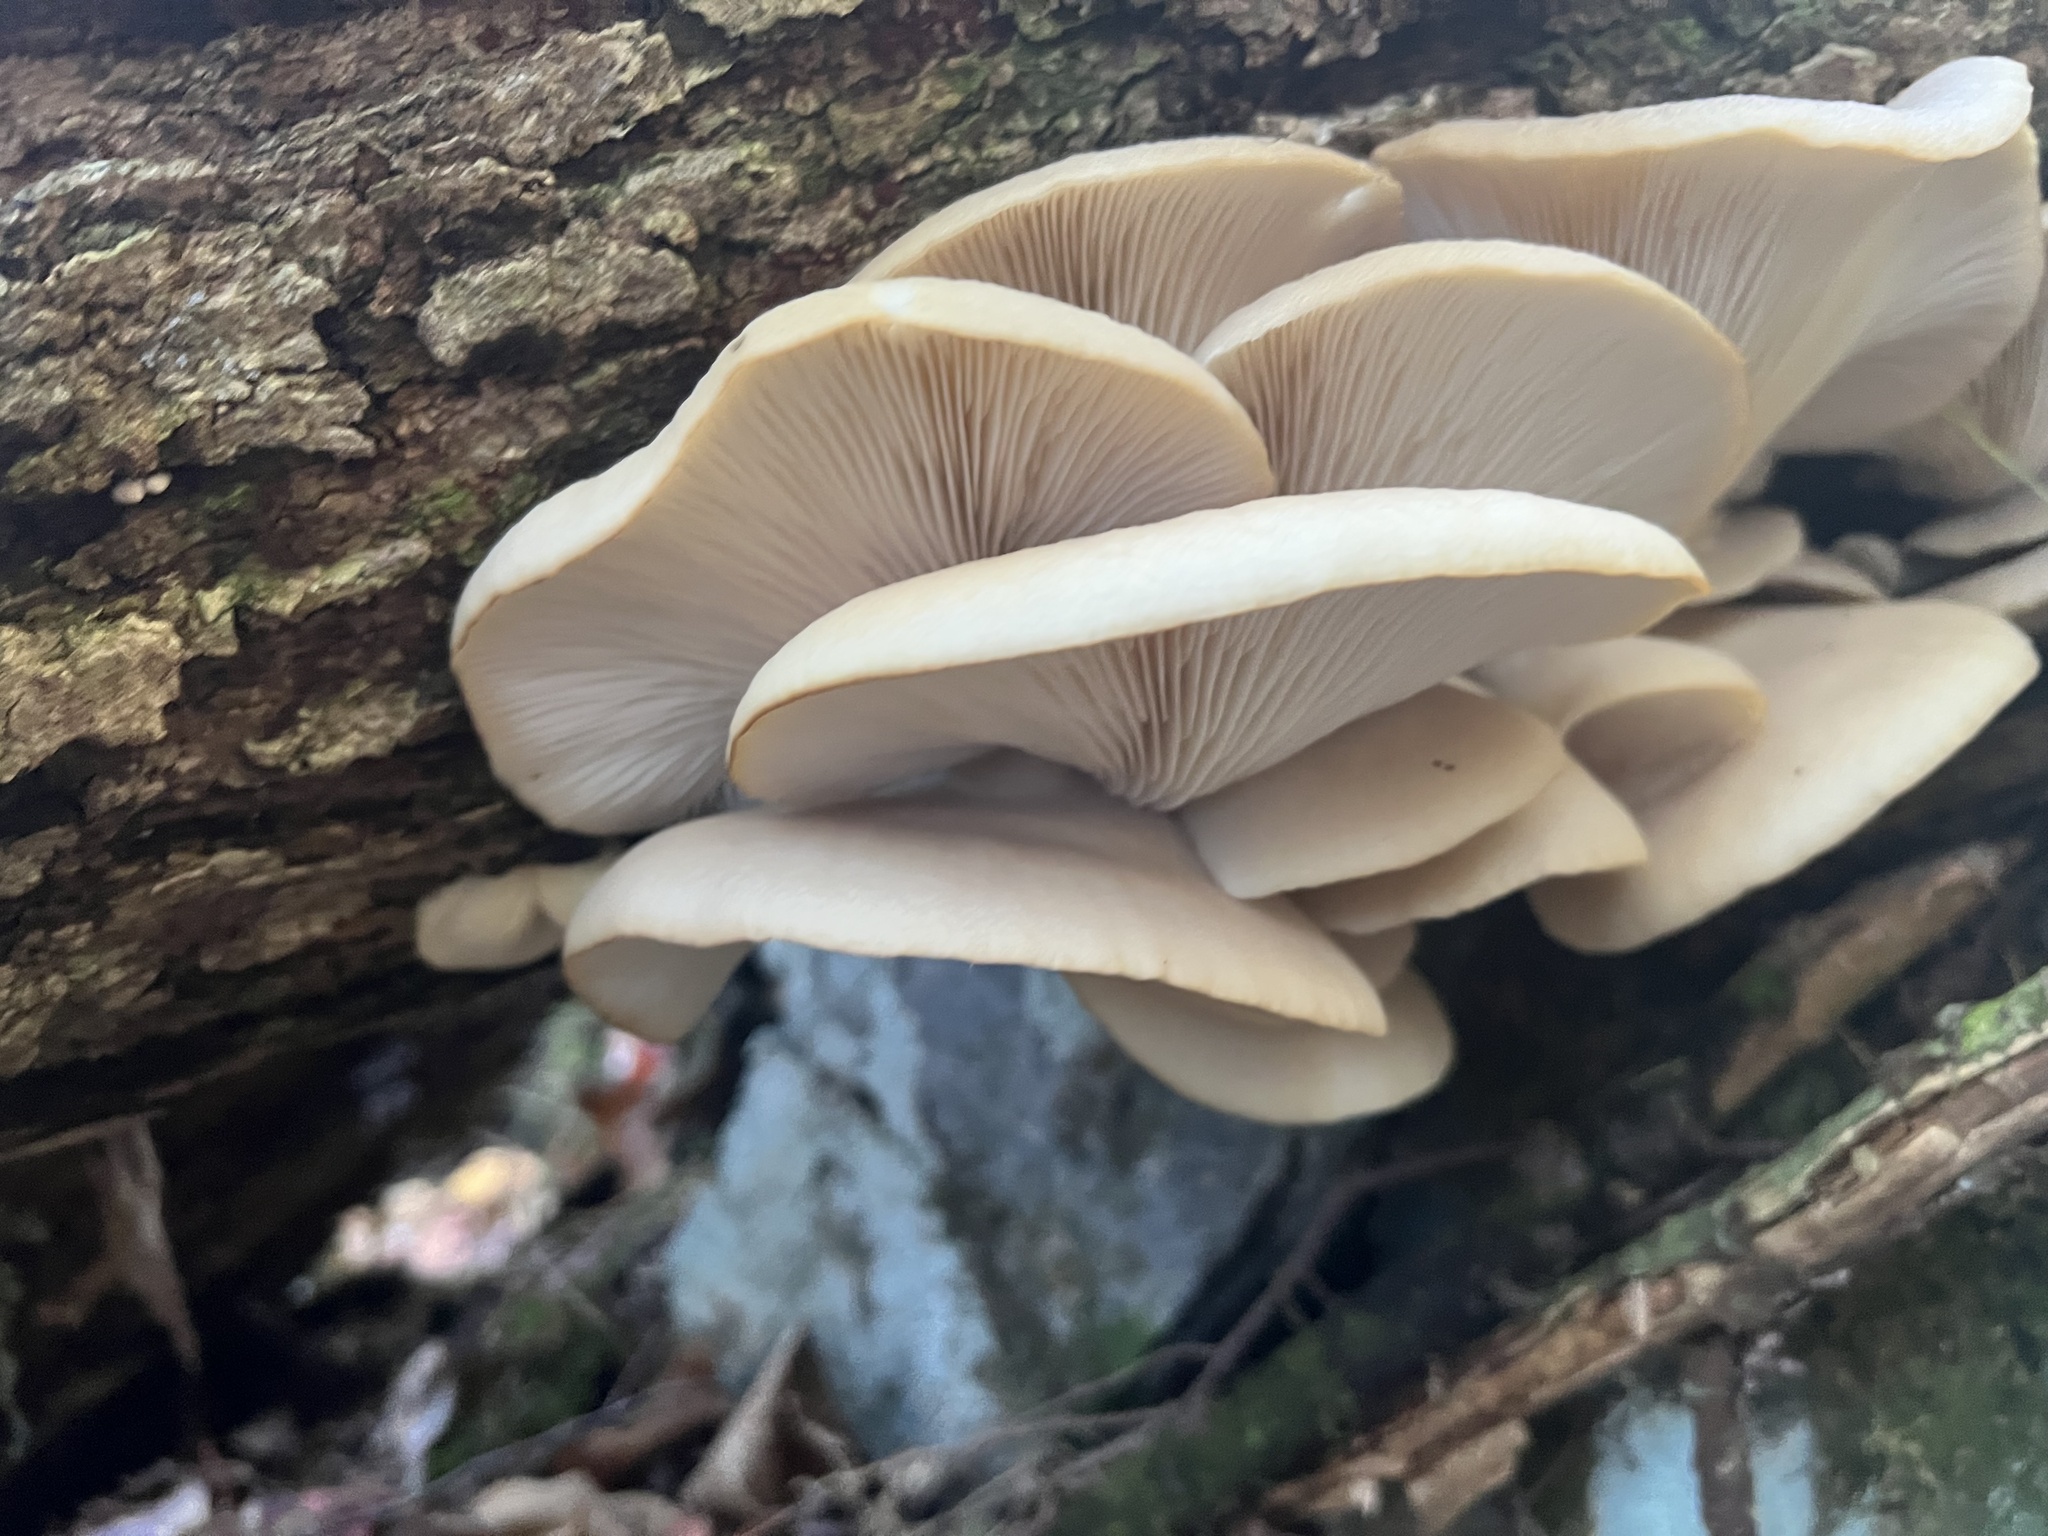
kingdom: Fungi
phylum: Basidiomycota
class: Agaricomycetes
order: Agaricales
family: Pleurotaceae
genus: Pleurotus
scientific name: Pleurotus ostreatus
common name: Oyster mushroom
